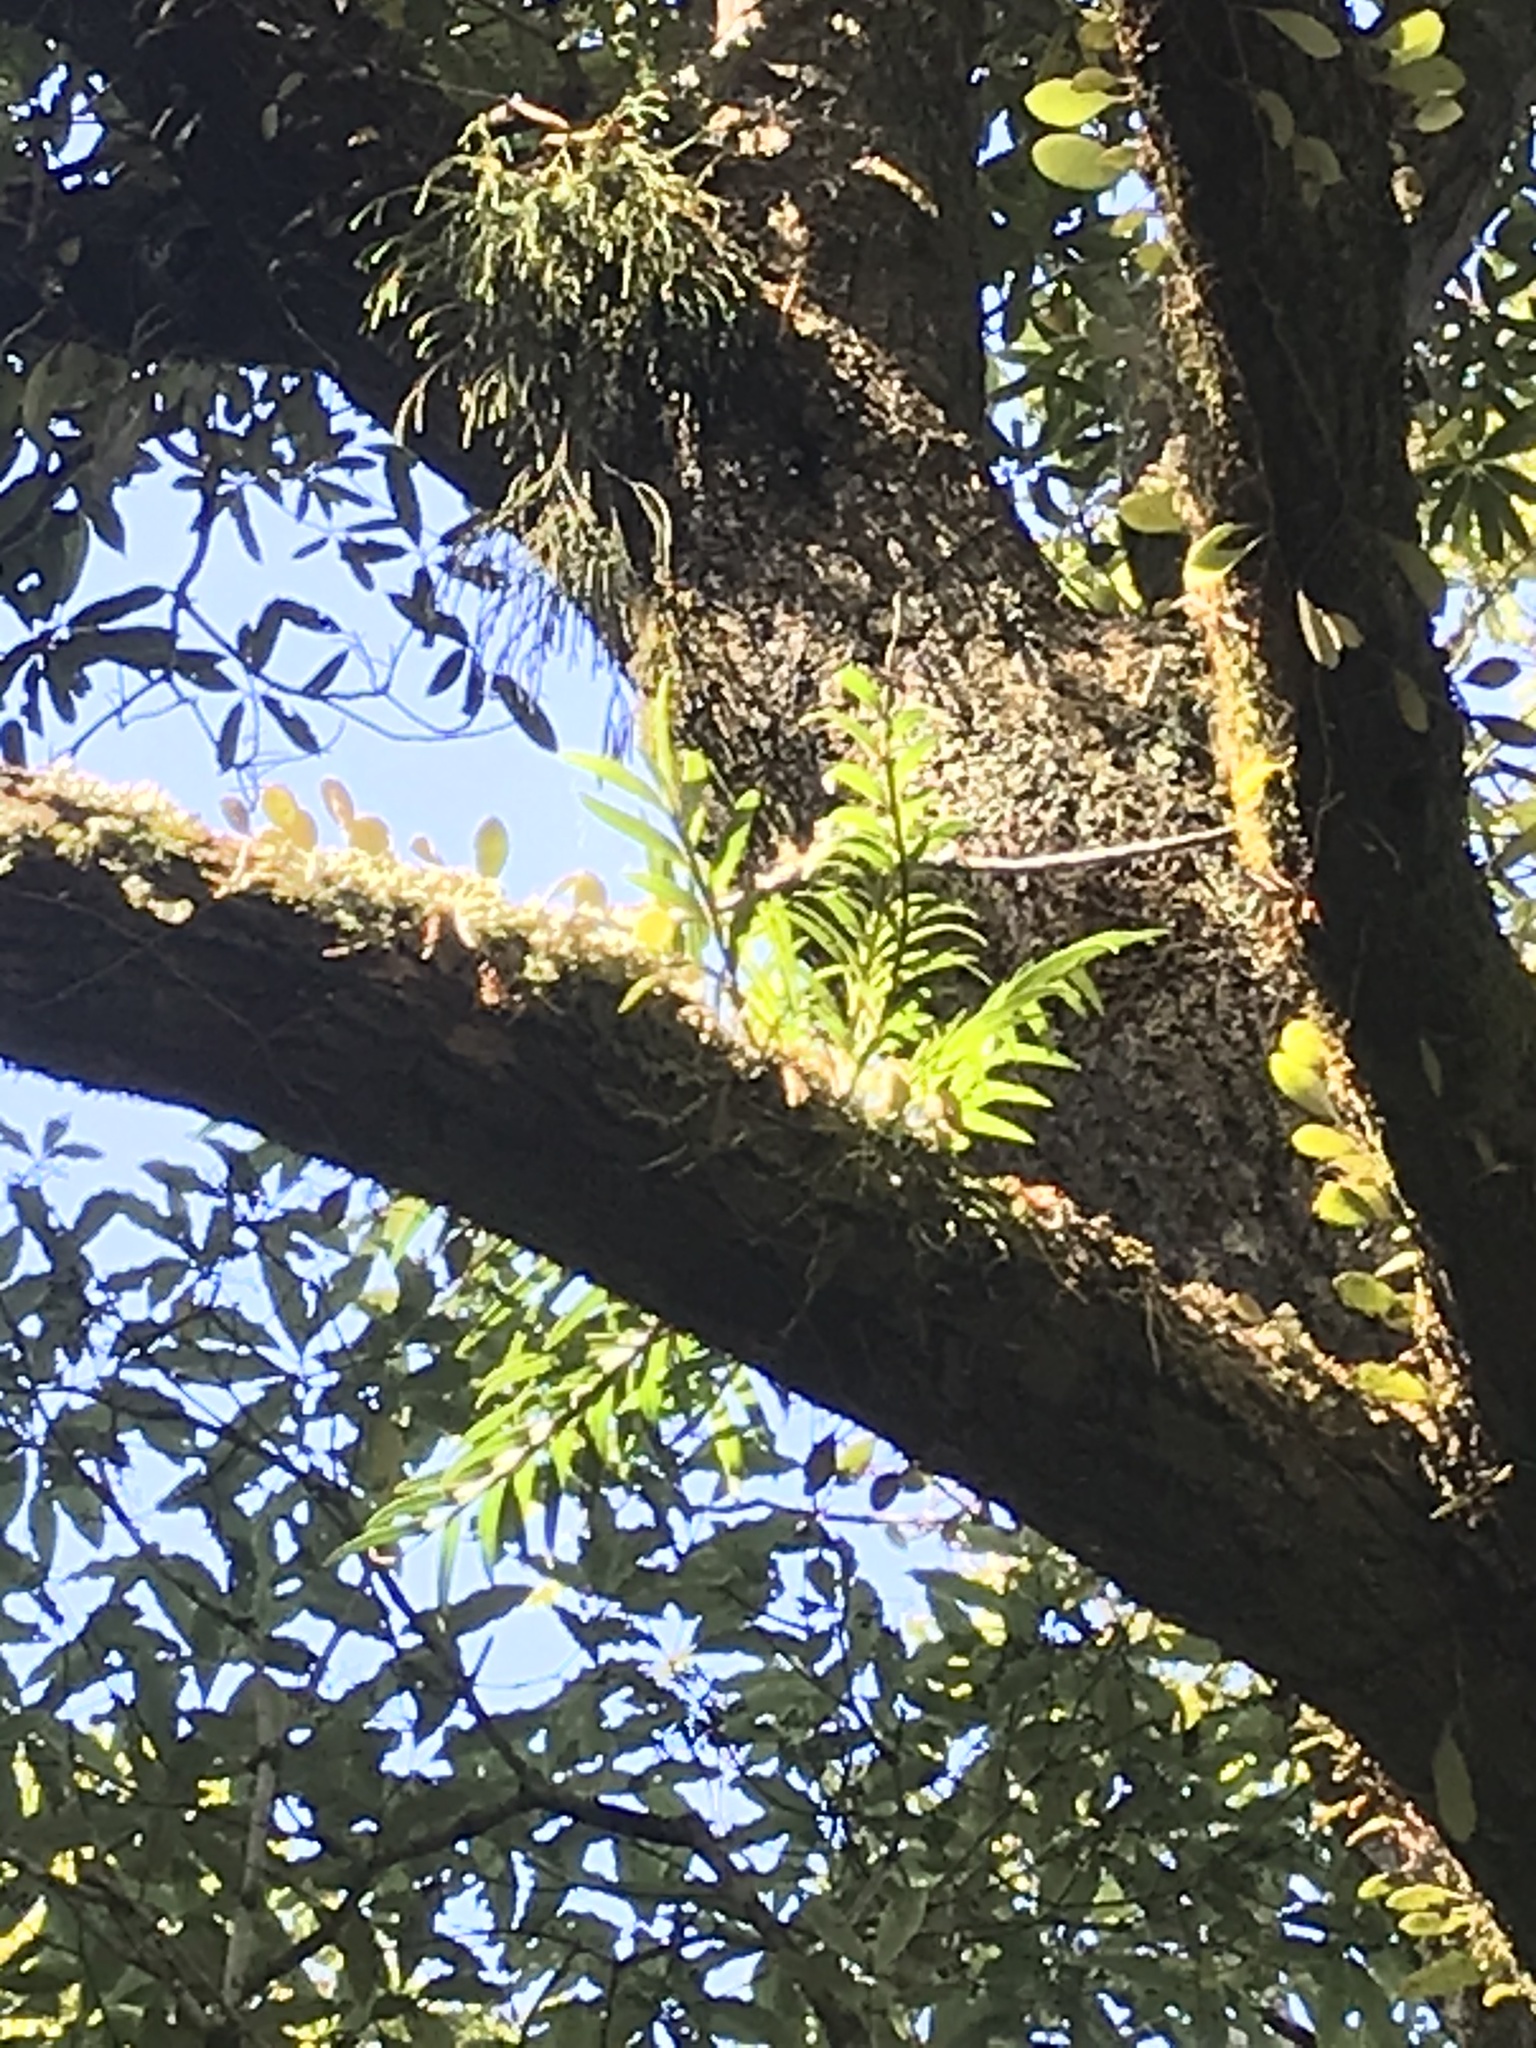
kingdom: Plantae
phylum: Tracheophyta
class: Liliopsida
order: Asparagales
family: Orchidaceae
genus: Earina
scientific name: Earina autumnalis
